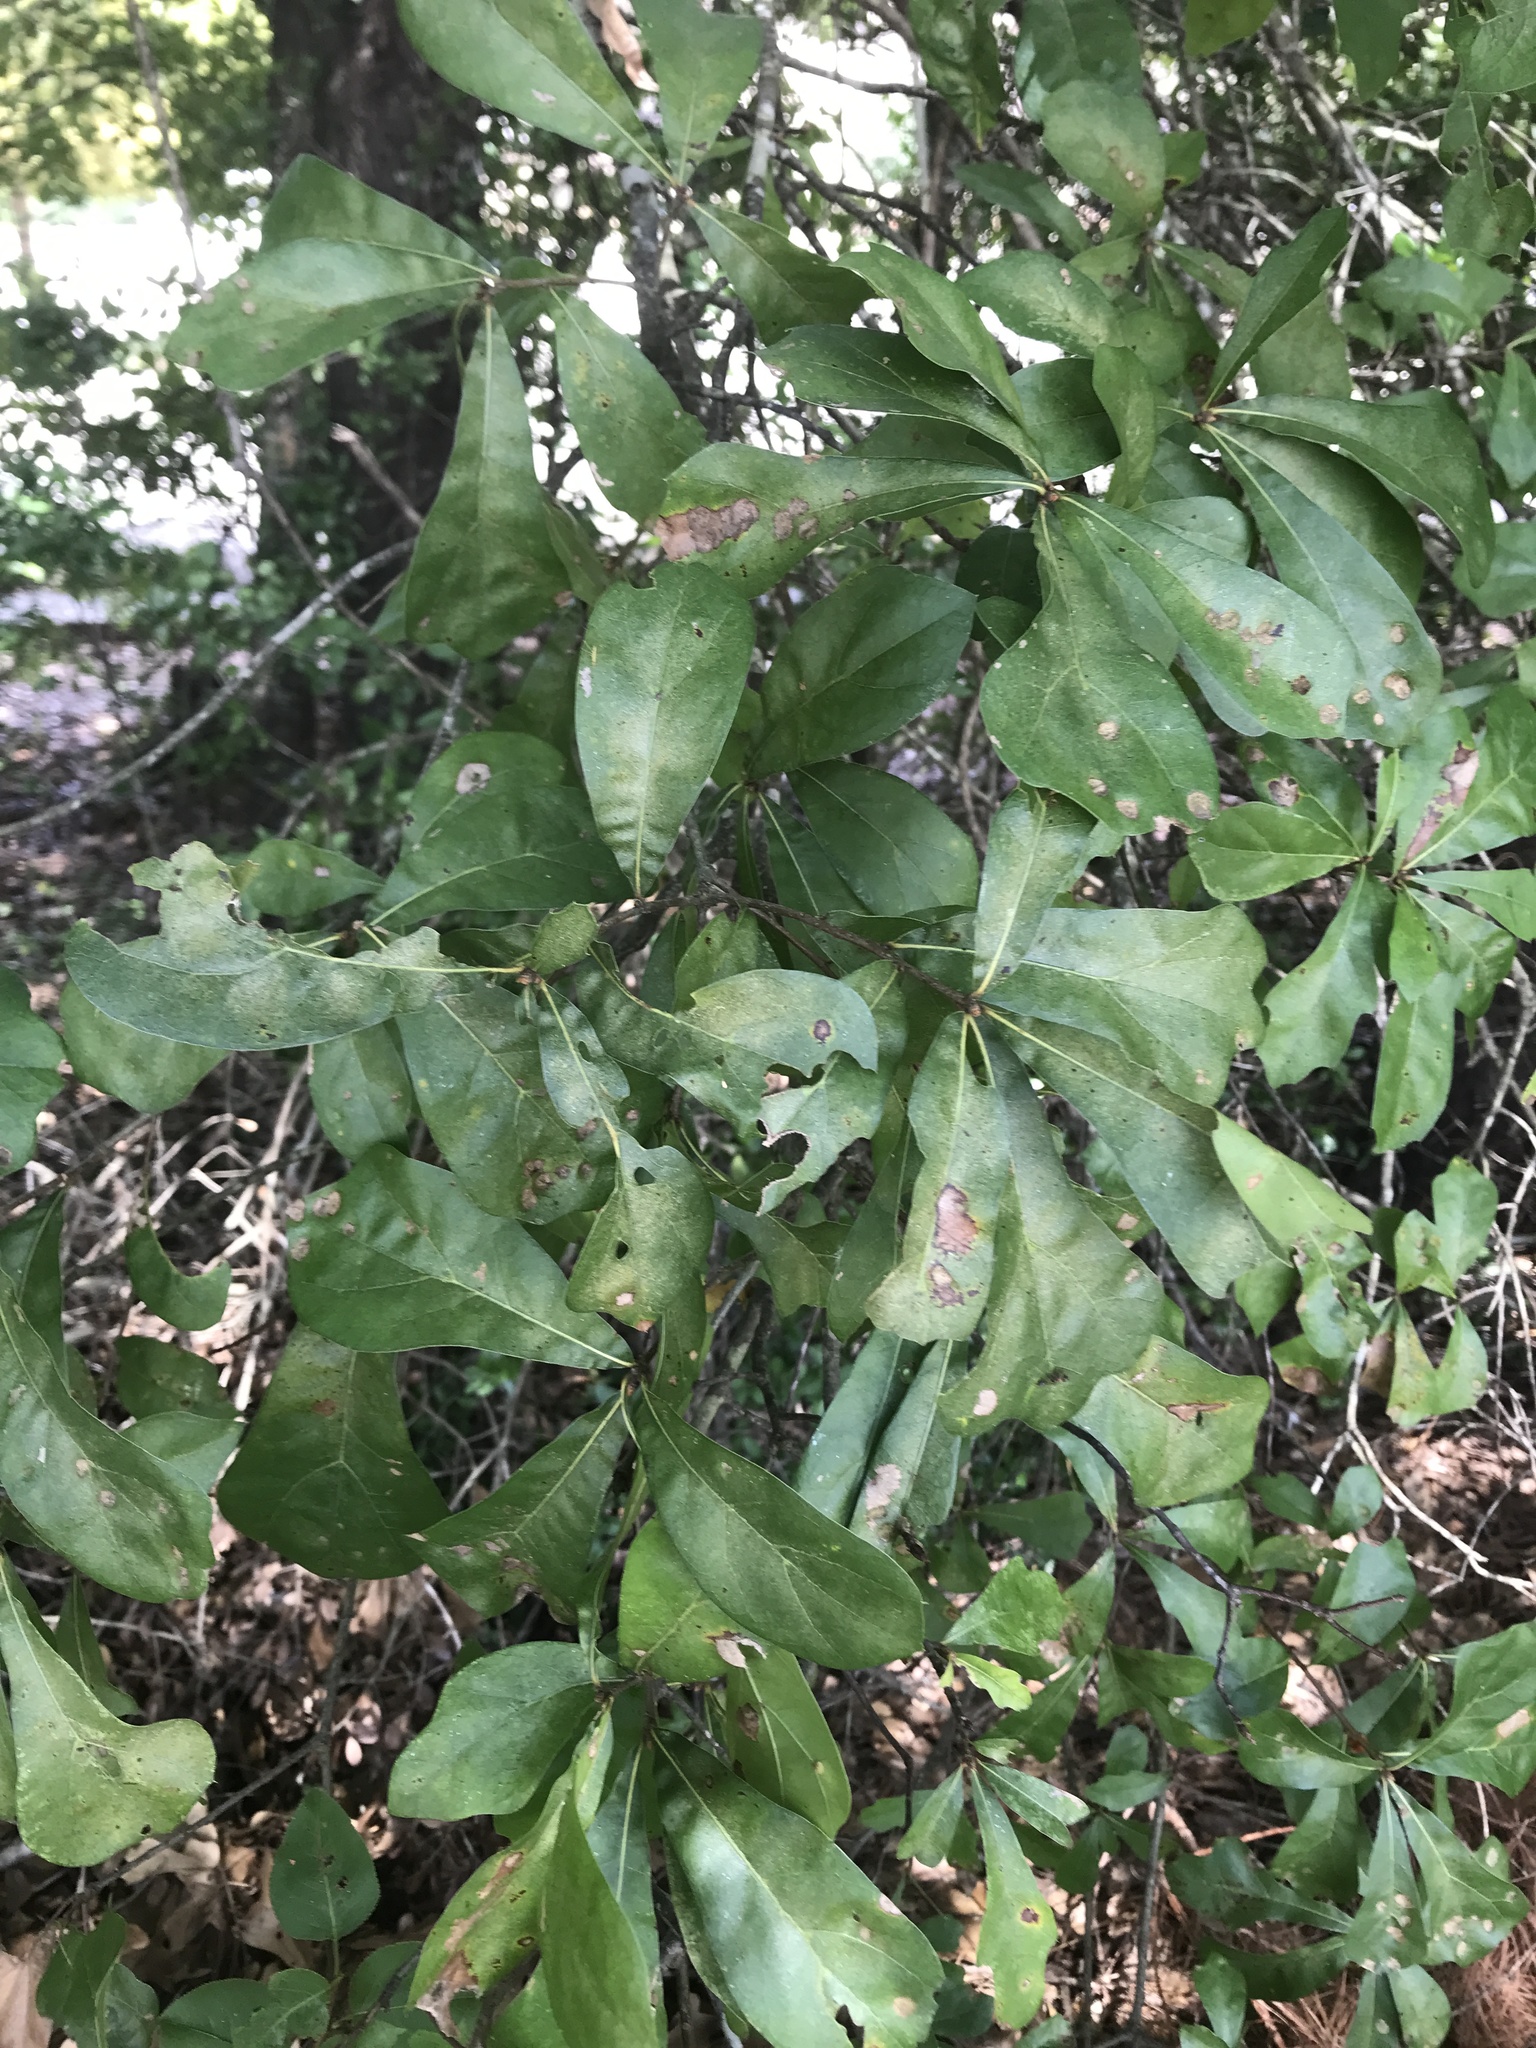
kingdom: Plantae
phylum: Tracheophyta
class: Magnoliopsida
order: Fagales
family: Fagaceae
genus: Quercus
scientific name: Quercus nigra
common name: Water oak
